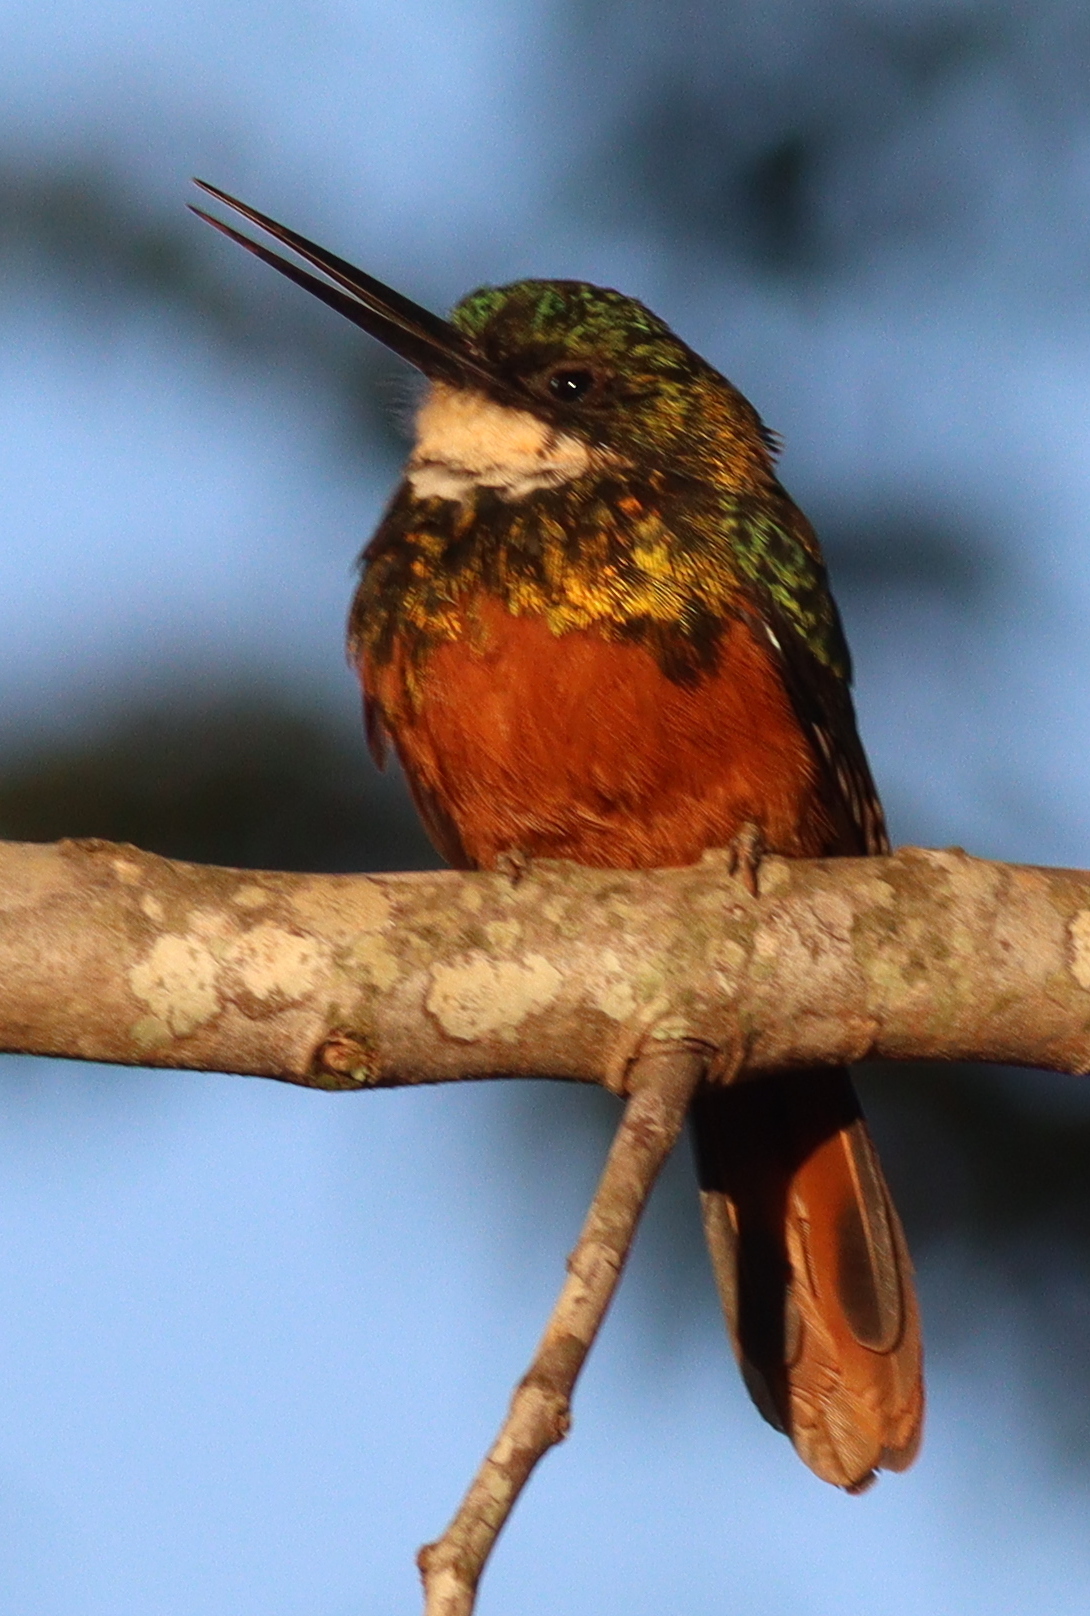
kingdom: Animalia
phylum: Chordata
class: Aves
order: Piciformes
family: Galbulidae
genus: Galbula
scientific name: Galbula ruficauda
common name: Rufous-tailed jacamar
